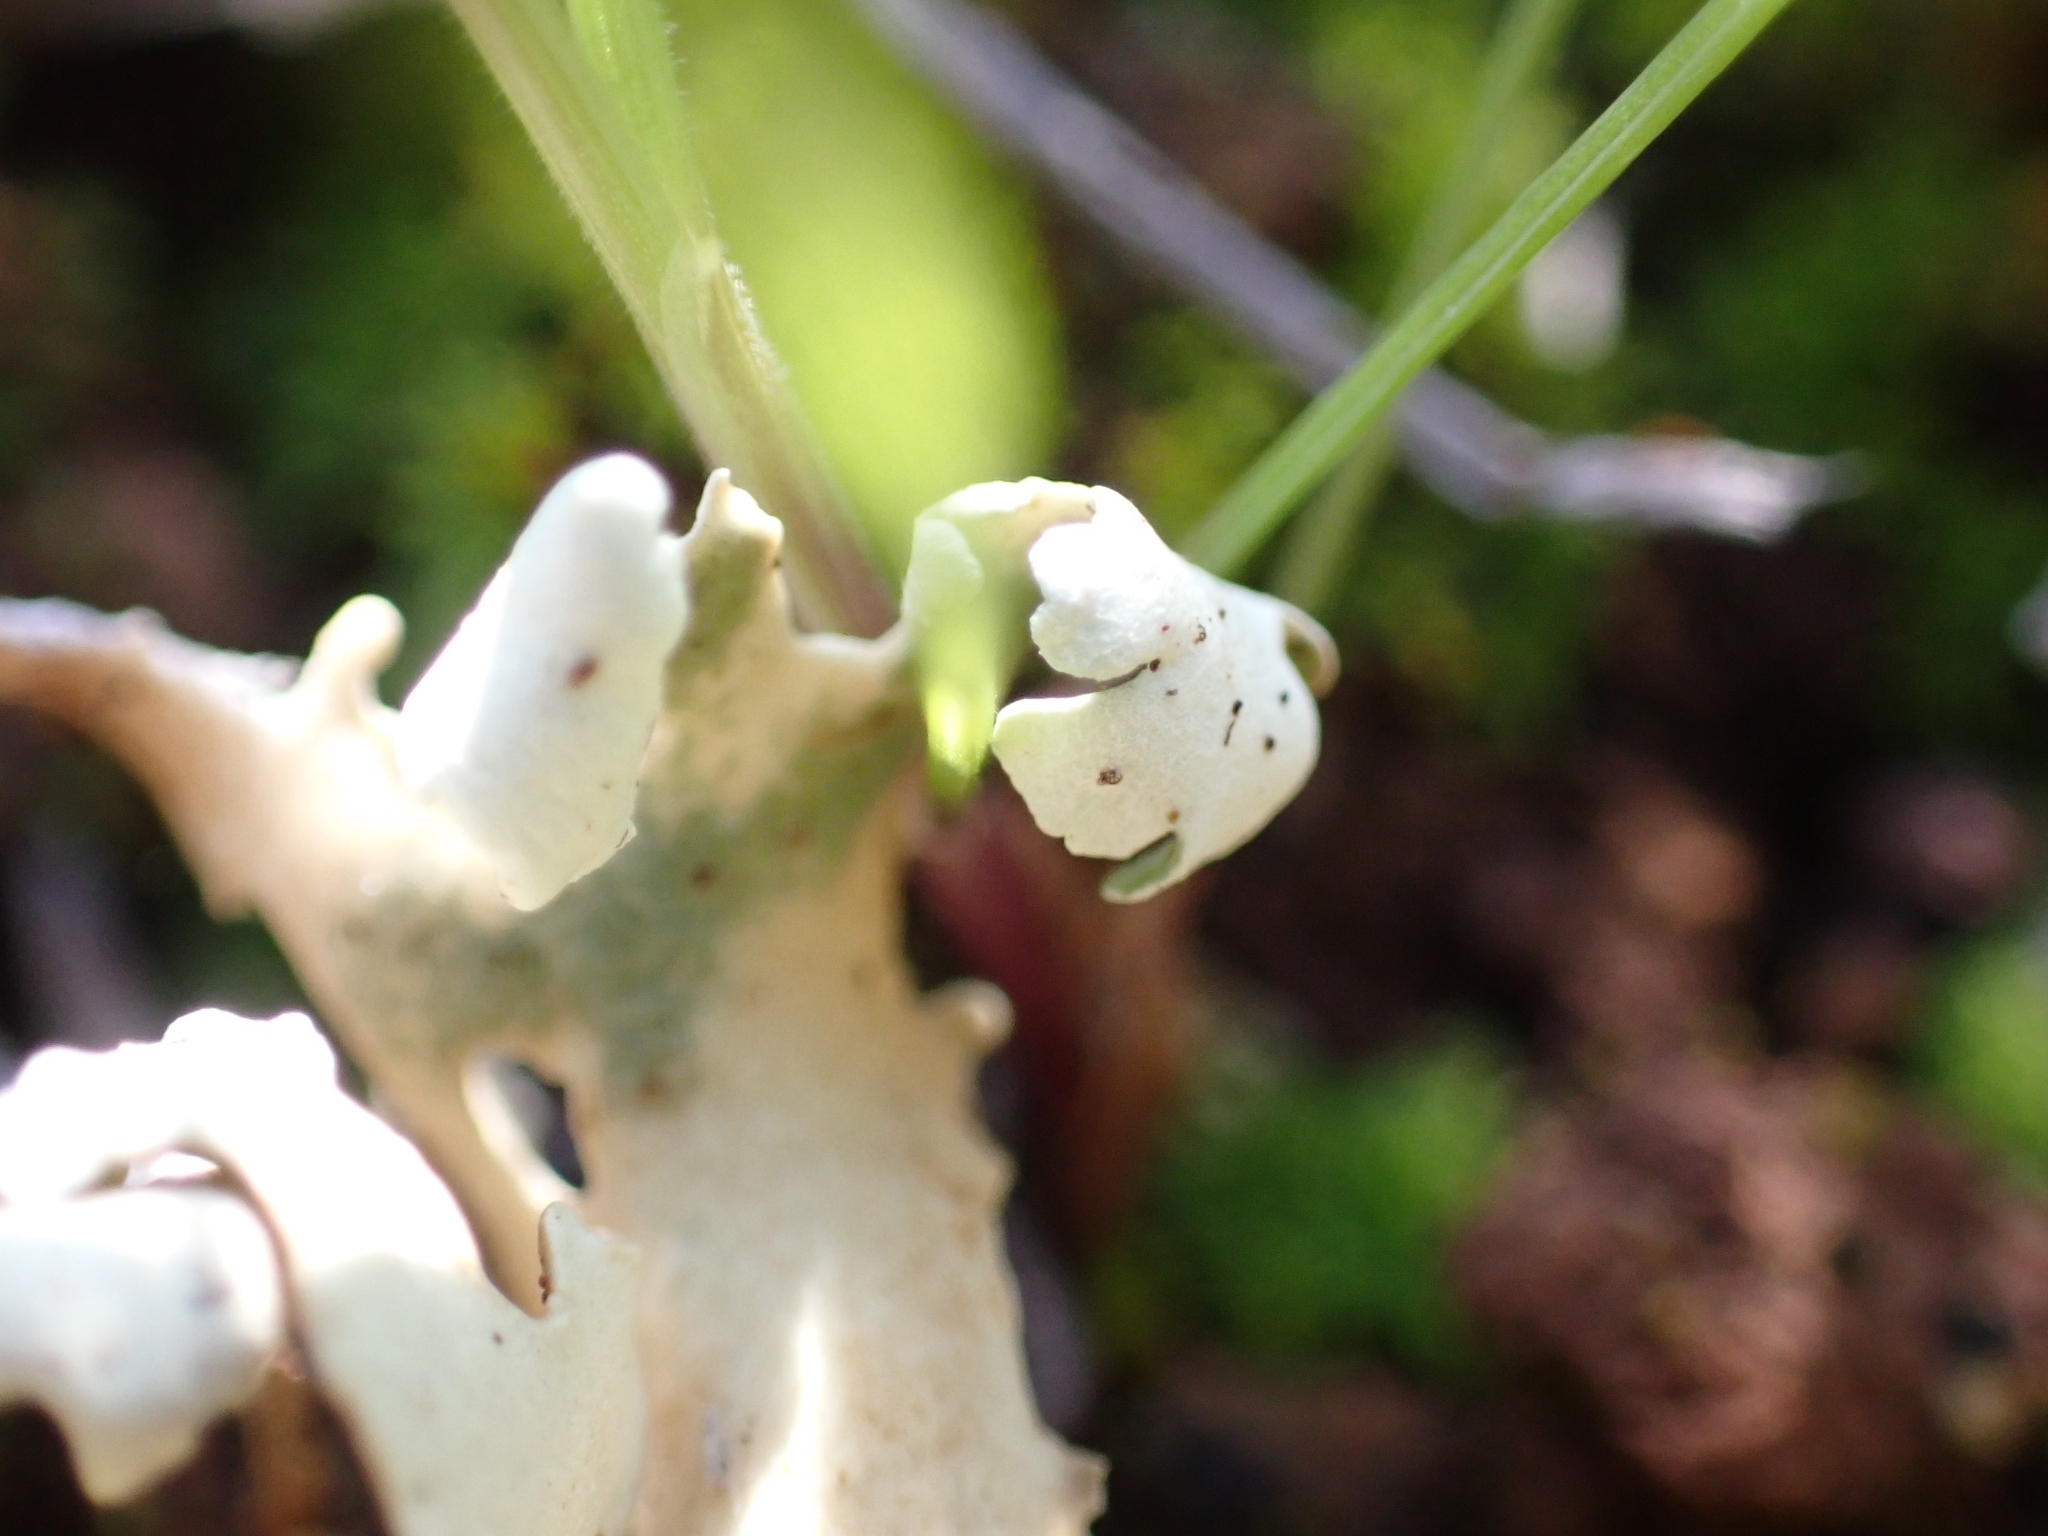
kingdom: Fungi
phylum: Ascomycota
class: Lecanoromycetes
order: Lecanorales
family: Cladoniaceae
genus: Cladonia
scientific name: Cladonia foliacea
